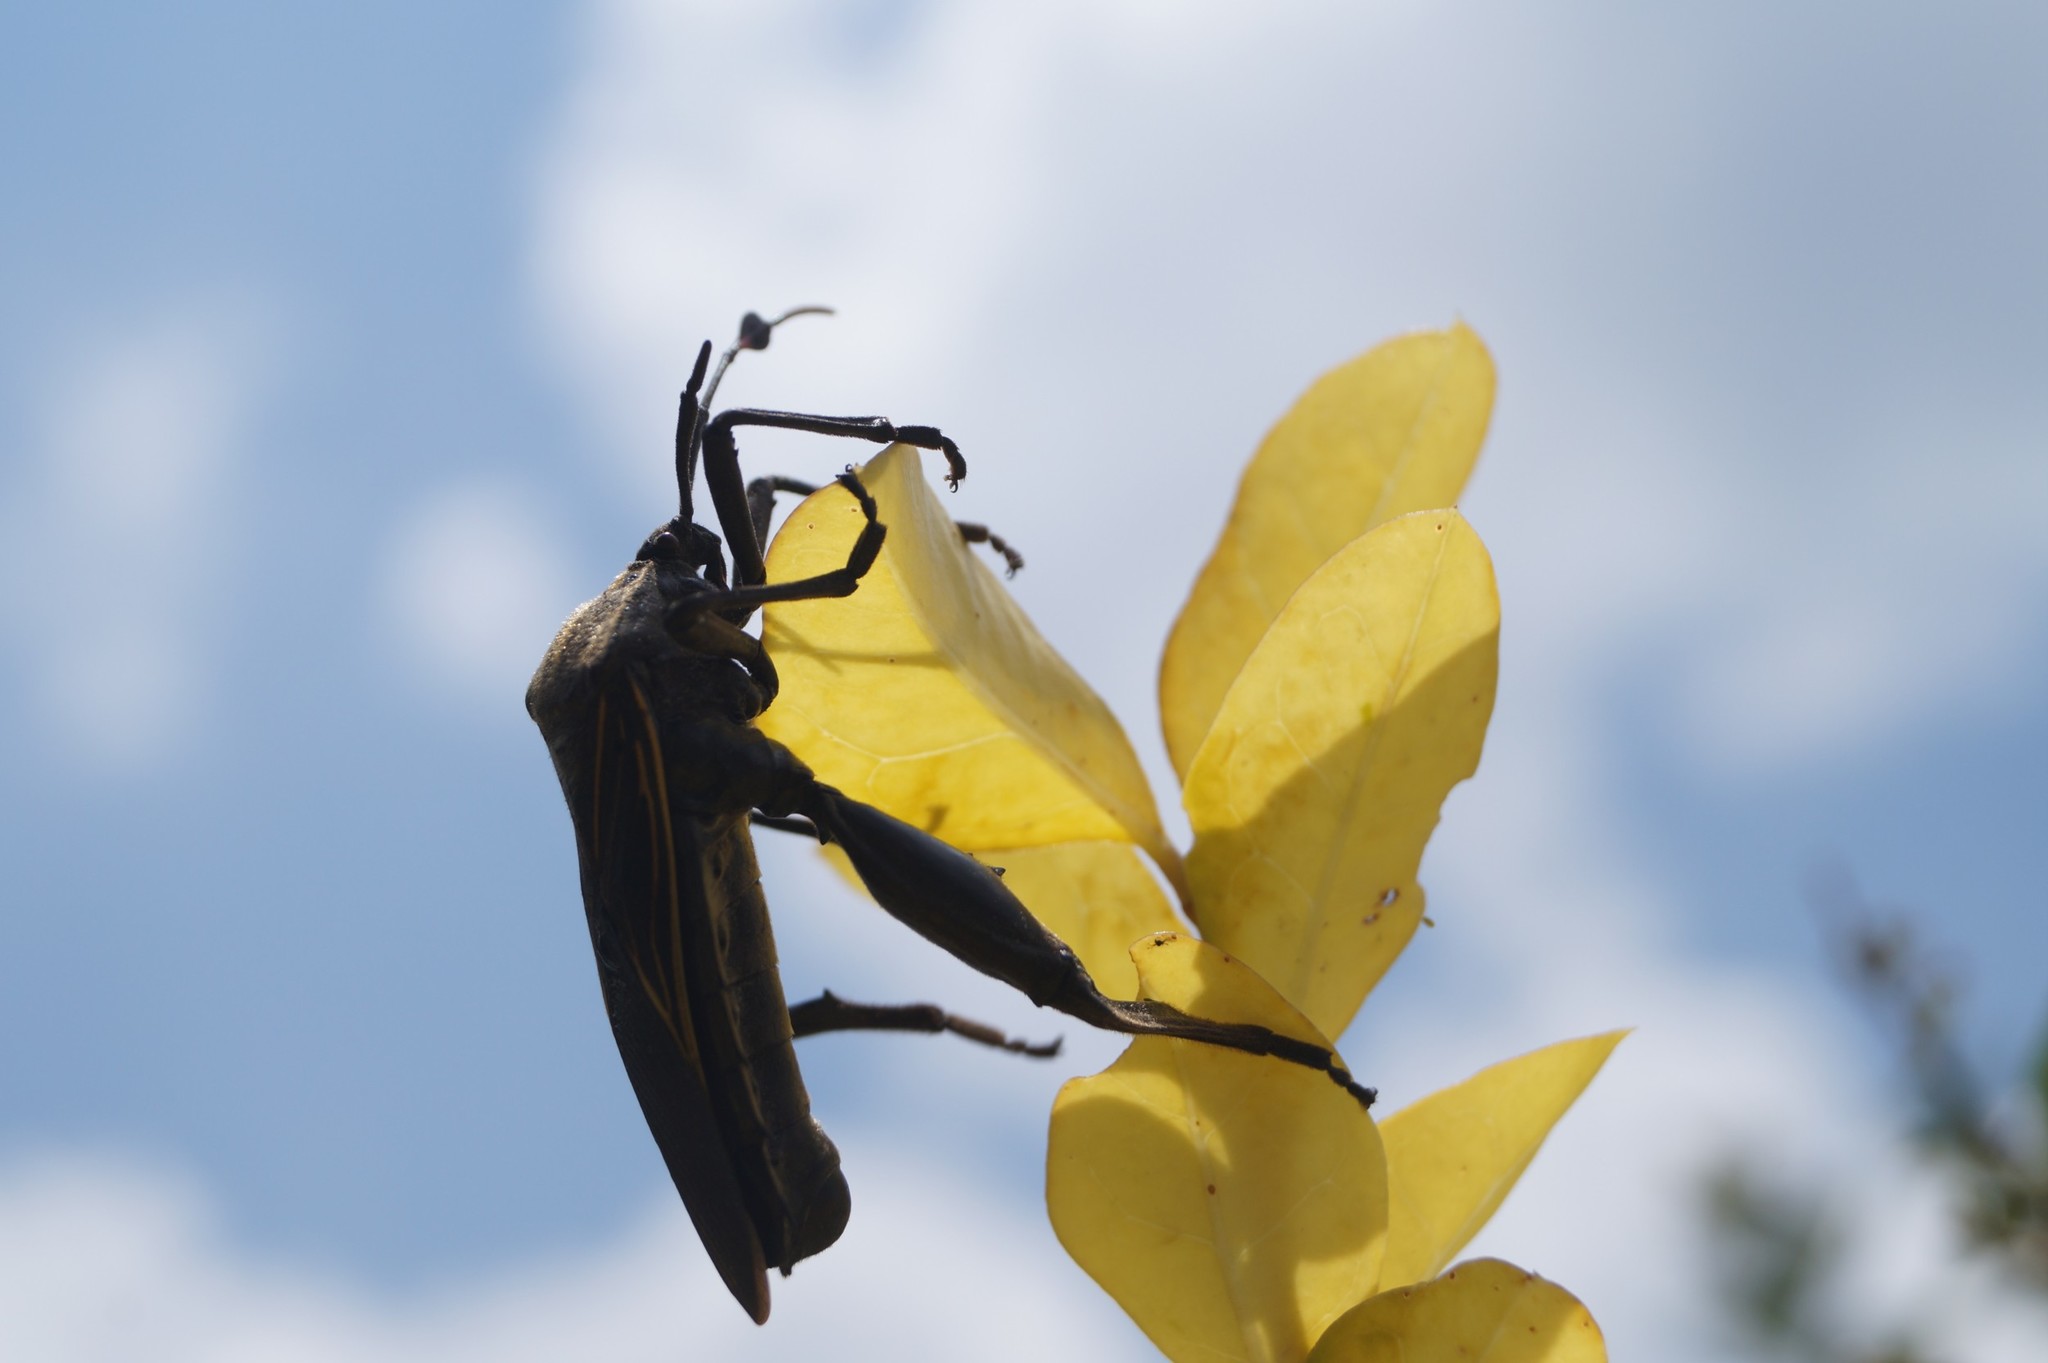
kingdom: Animalia
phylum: Arthropoda
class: Insecta
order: Hemiptera
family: Coreidae
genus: Thasus
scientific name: Thasus
